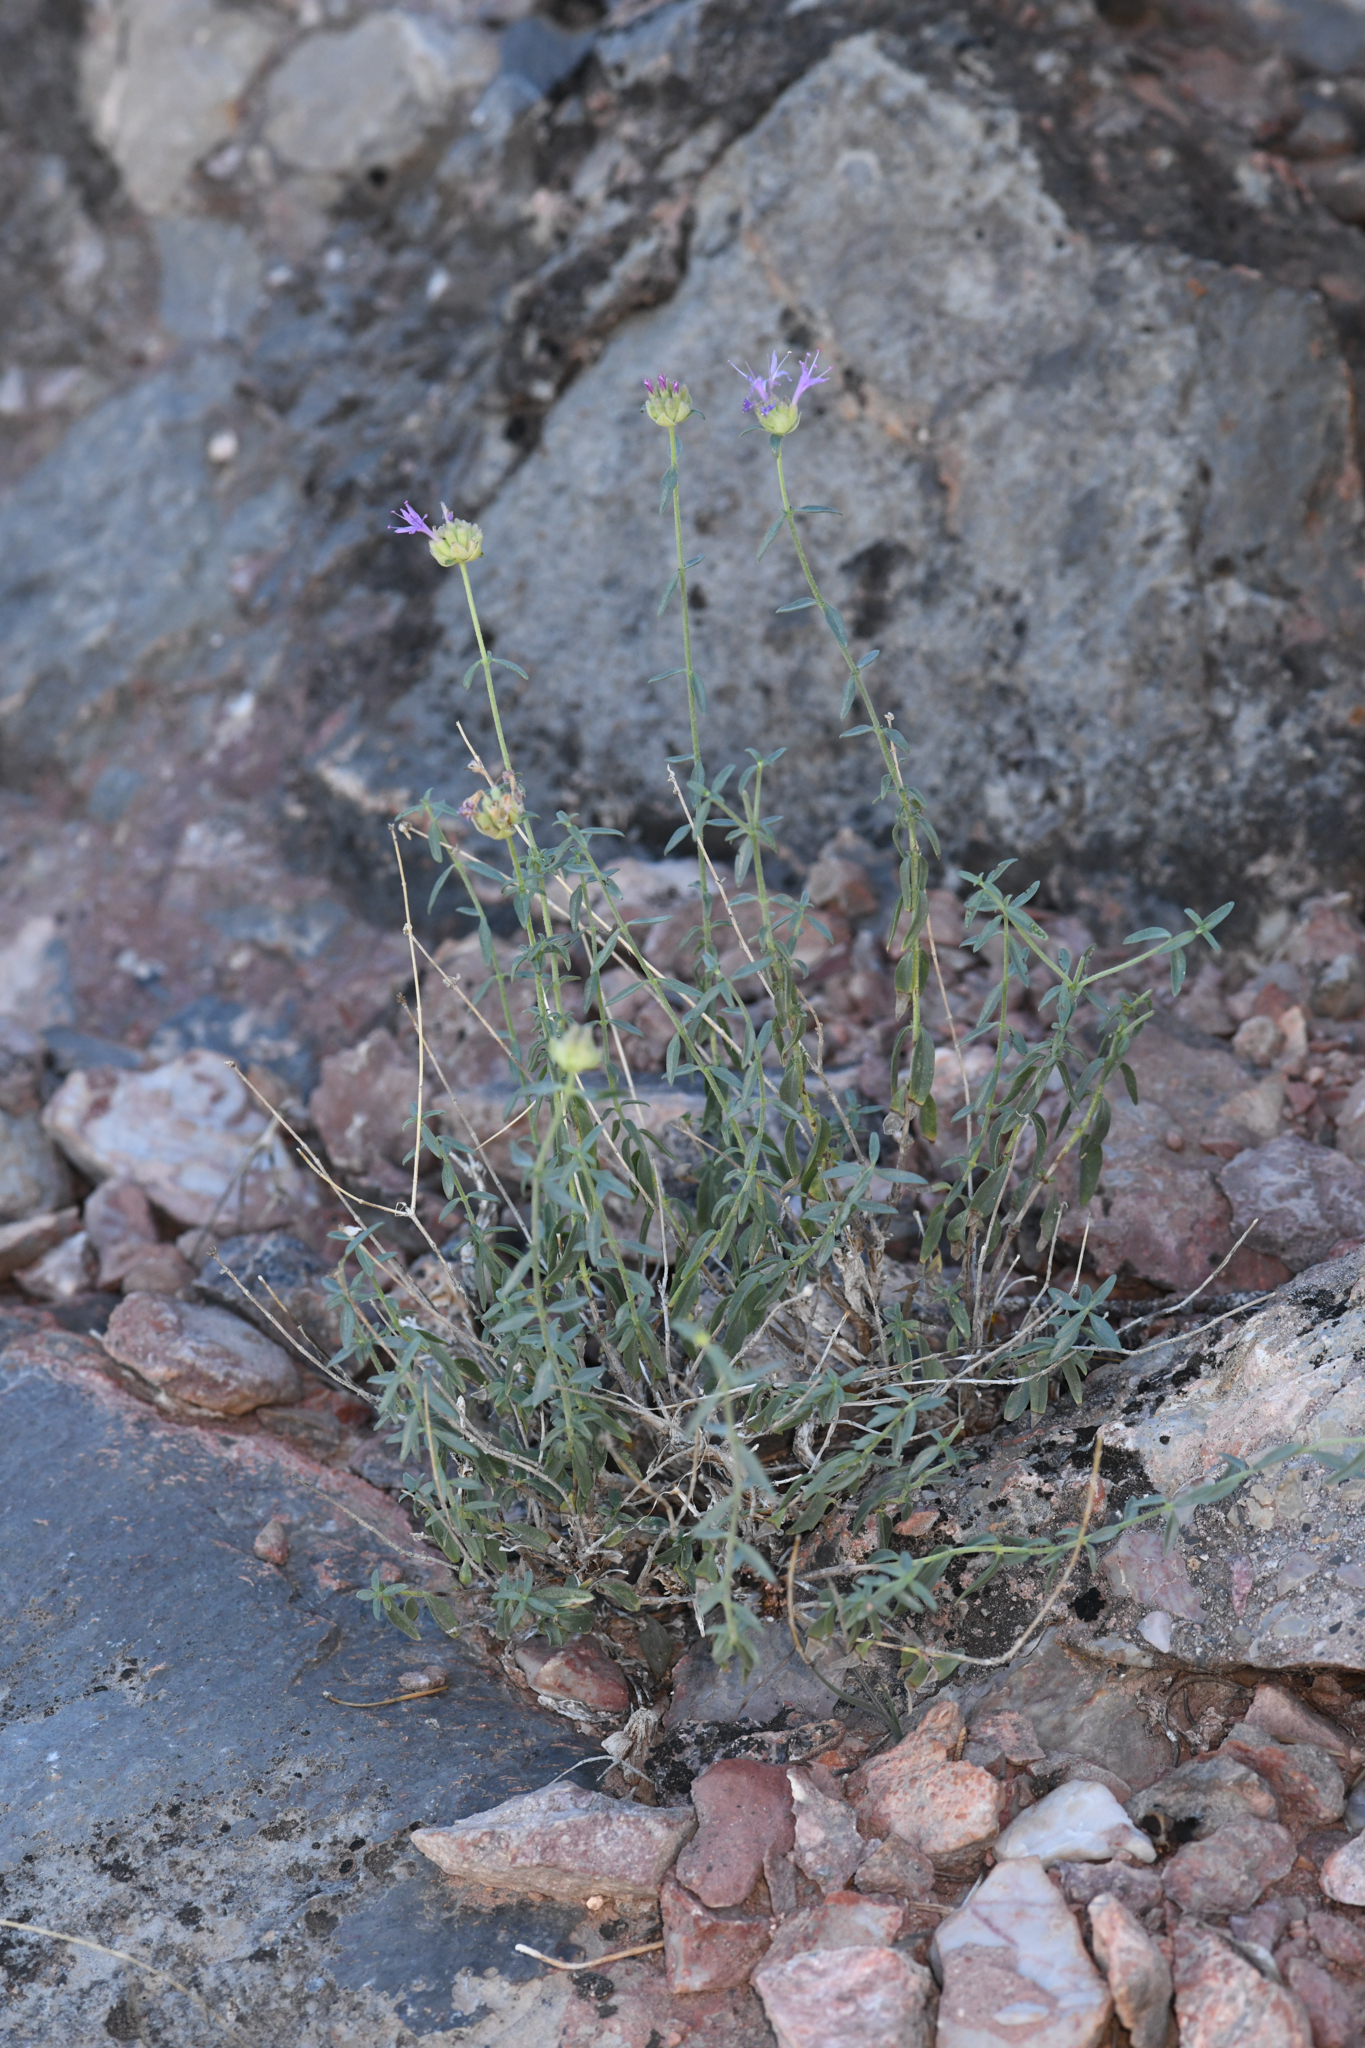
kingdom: Plantae
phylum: Tracheophyta
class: Magnoliopsida
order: Lamiales
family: Lamiaceae
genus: Monardella
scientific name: Monardella eremicola
